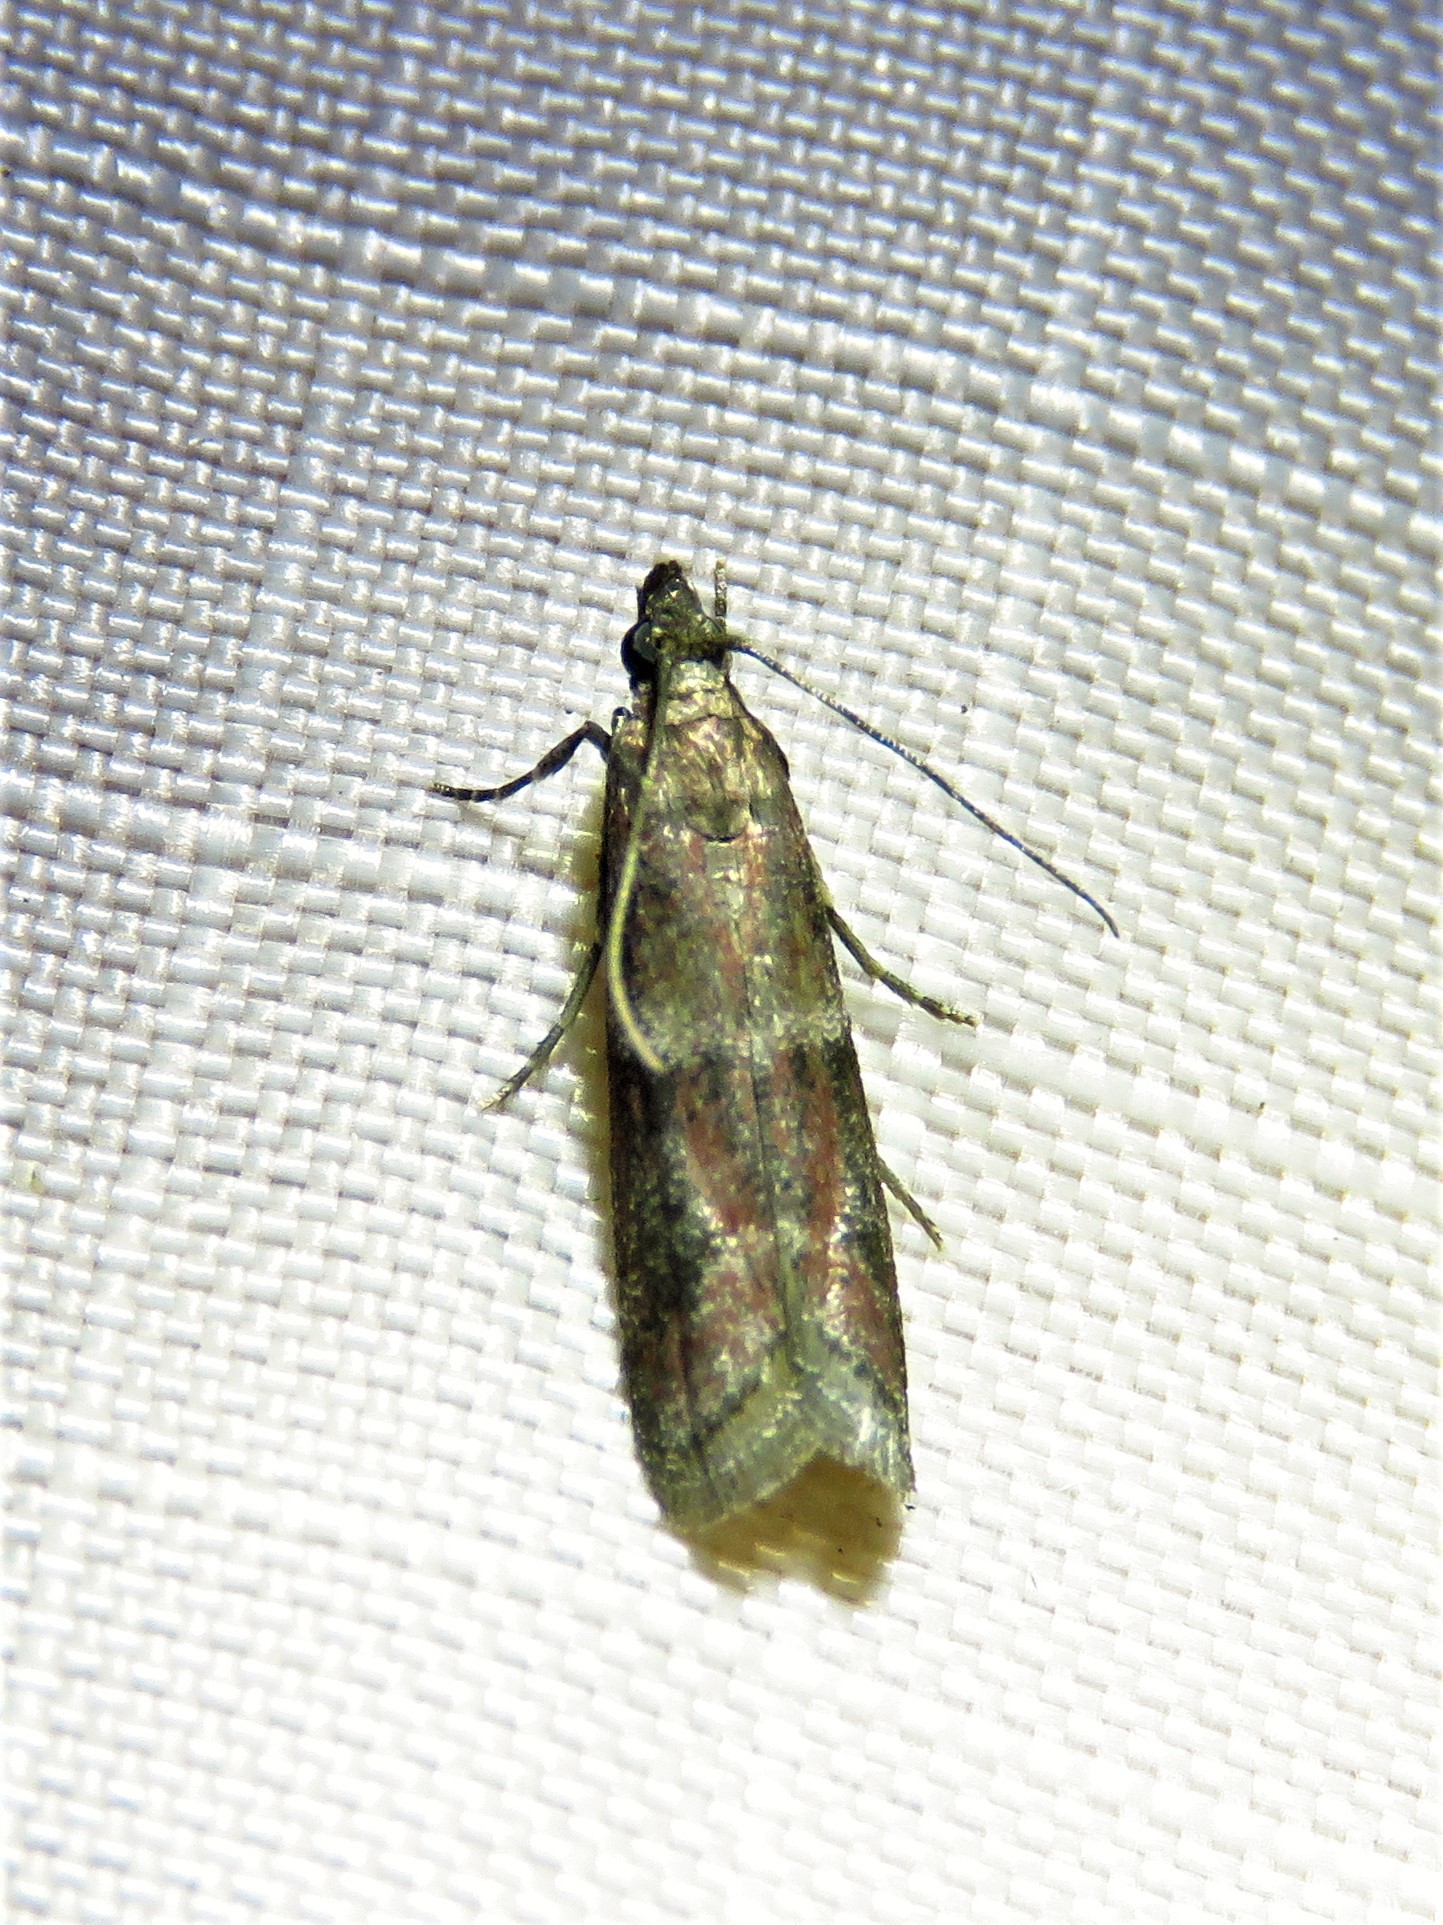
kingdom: Animalia
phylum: Arthropoda
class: Insecta
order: Lepidoptera
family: Pyralidae
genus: Moodna
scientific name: Moodna ostrinella
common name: Darker moodna moth
